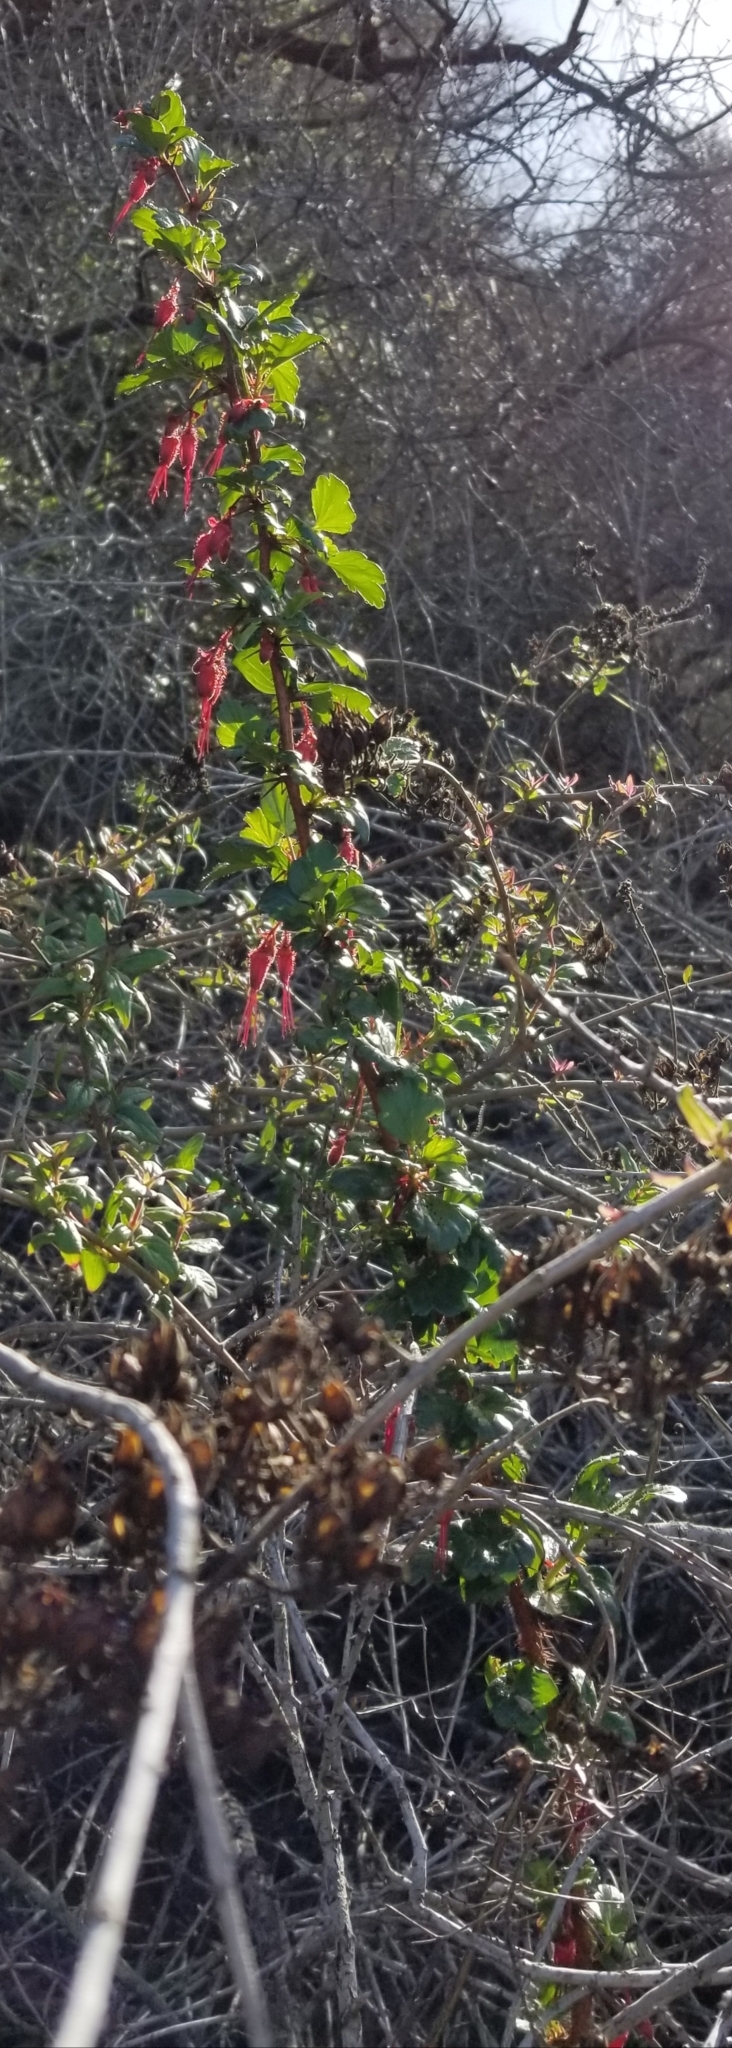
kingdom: Plantae
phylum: Tracheophyta
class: Magnoliopsida
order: Saxifragales
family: Grossulariaceae
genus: Ribes
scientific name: Ribes speciosum
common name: Fuchsia-flower gooseberry
